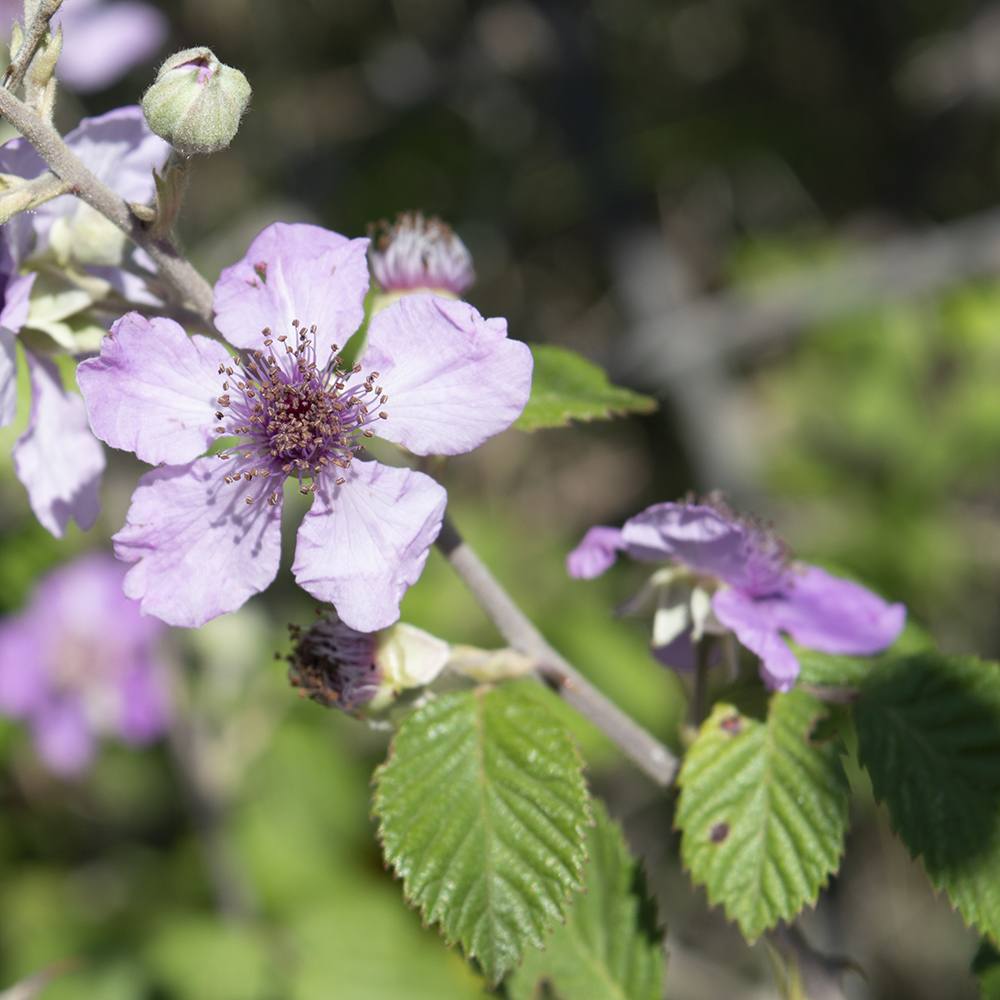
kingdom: Plantae
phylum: Tracheophyta
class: Magnoliopsida
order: Rosales
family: Rosaceae
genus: Rubus
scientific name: Rubus sanctus
